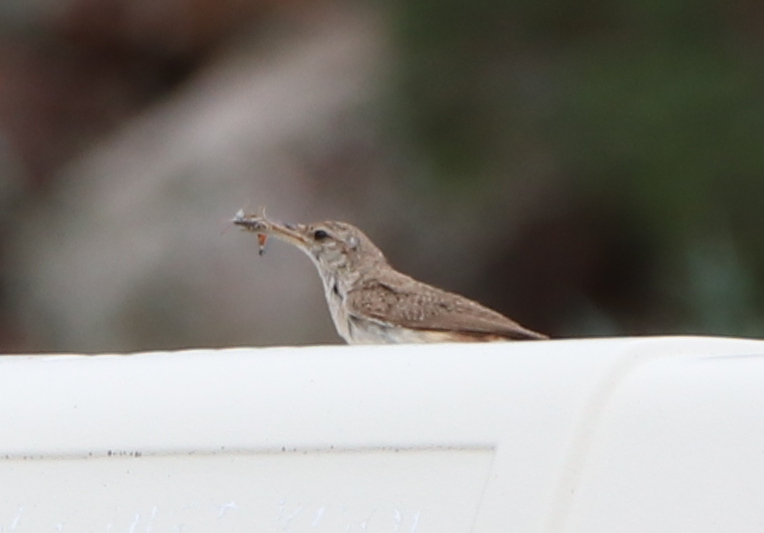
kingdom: Animalia
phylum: Chordata
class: Aves
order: Passeriformes
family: Troglodytidae
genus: Salpinctes
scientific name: Salpinctes obsoletus
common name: Rock wren
